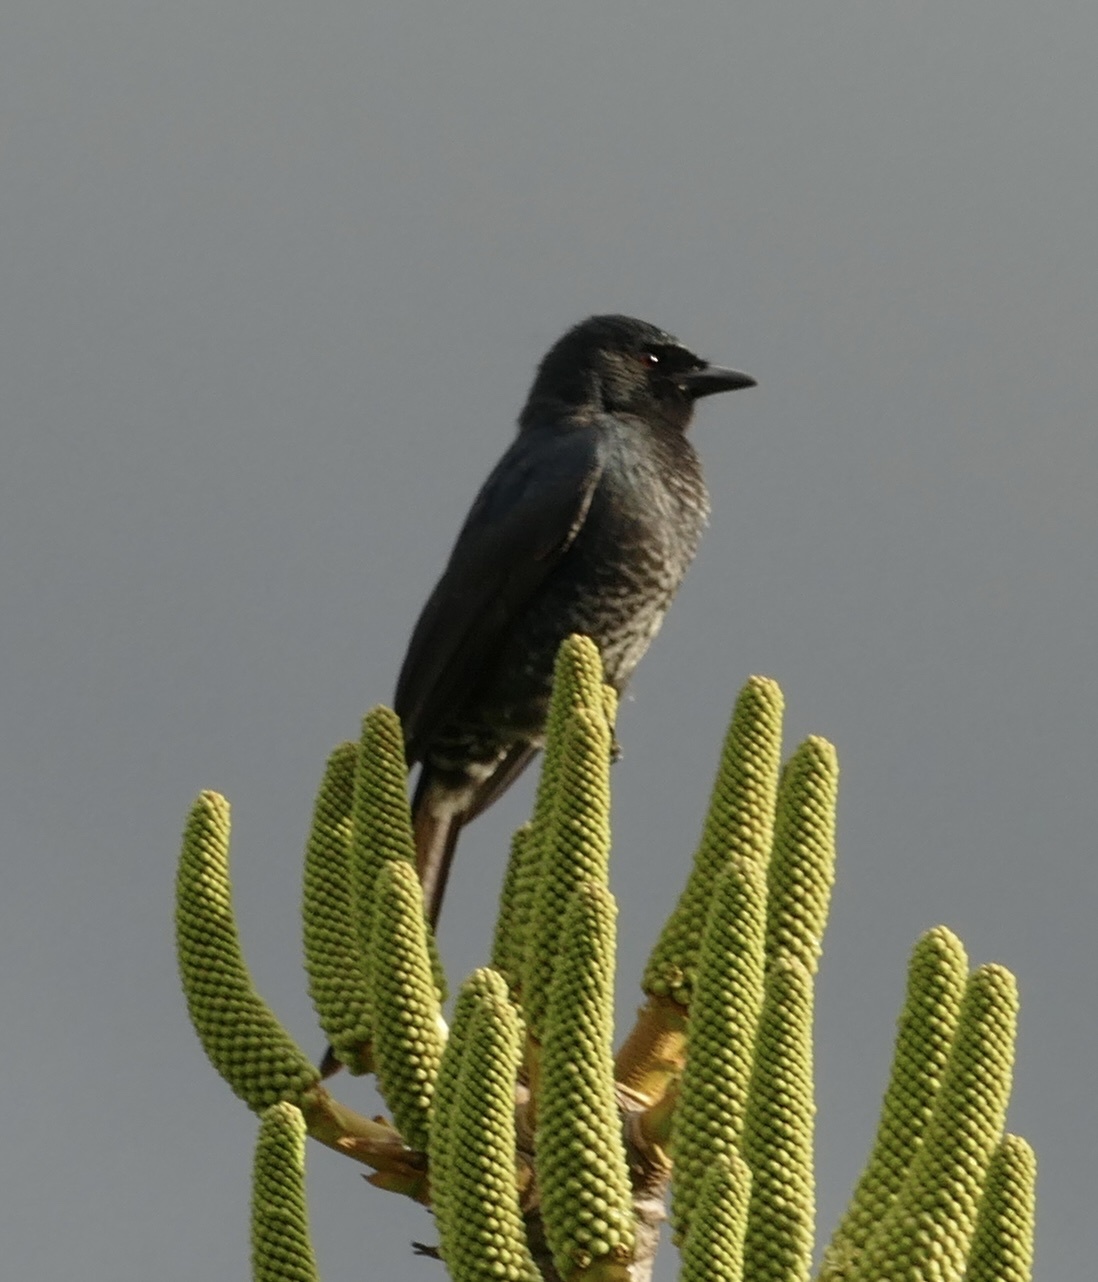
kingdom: Animalia
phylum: Chordata
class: Aves
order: Passeriformes
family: Dicruridae
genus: Dicrurus
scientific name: Dicrurus adsimilis
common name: Fork-tailed drongo
